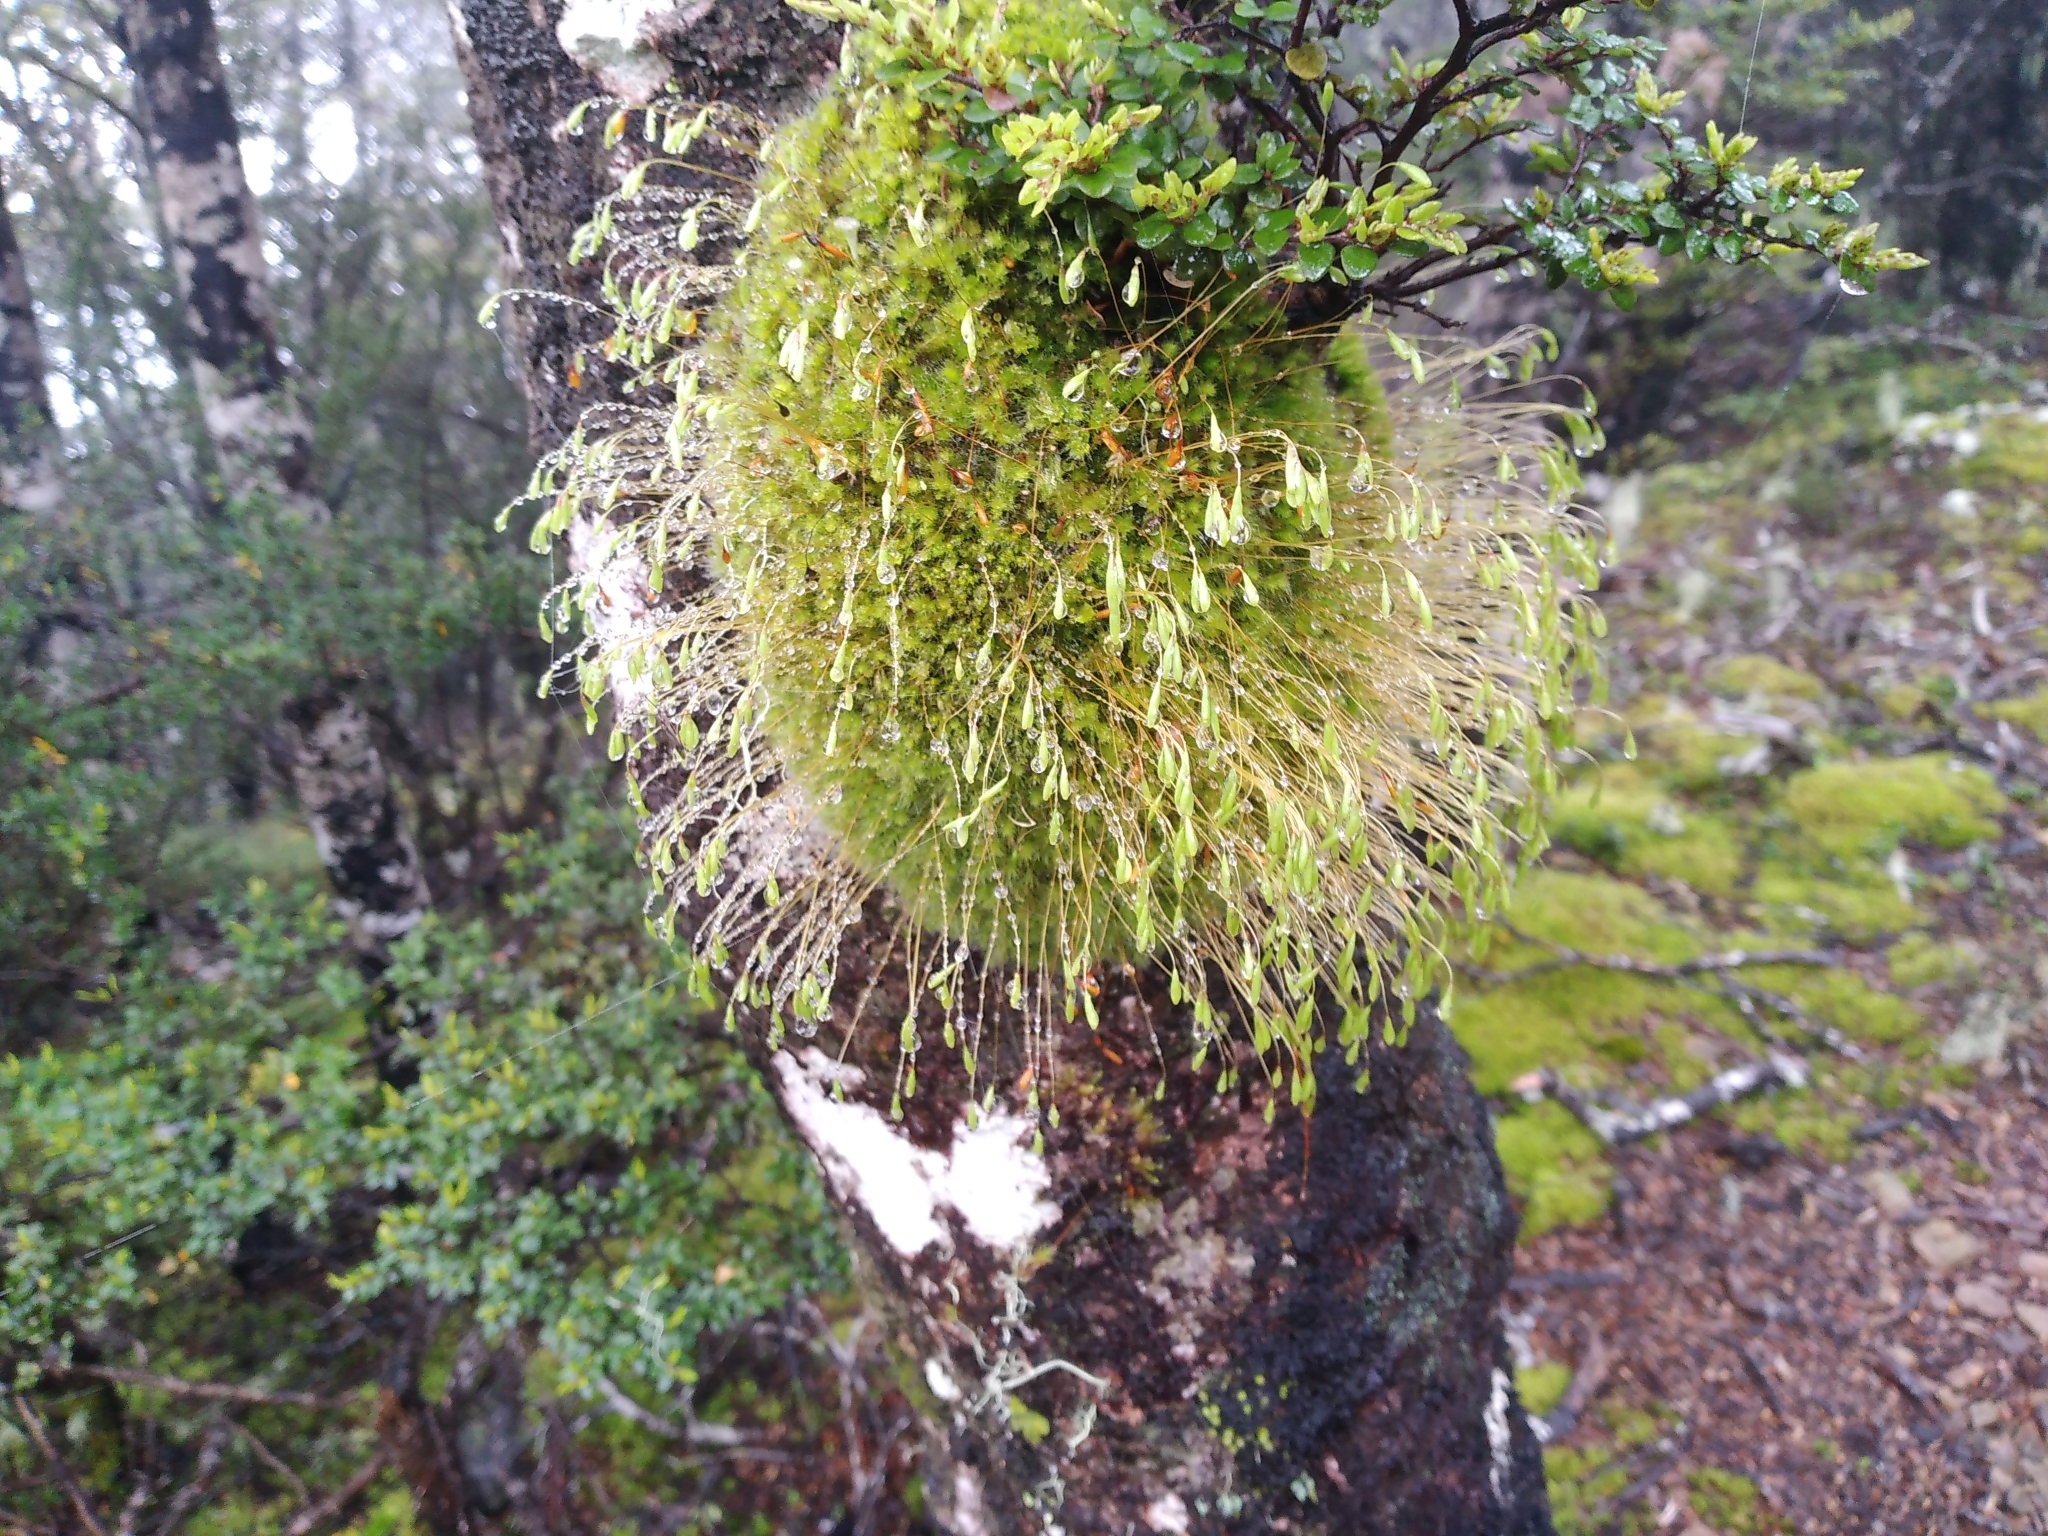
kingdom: Plantae
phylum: Bryophyta
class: Bryopsida
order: Bryales
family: Leptostomataceae
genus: Leptostomum
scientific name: Leptostomum inclinans
